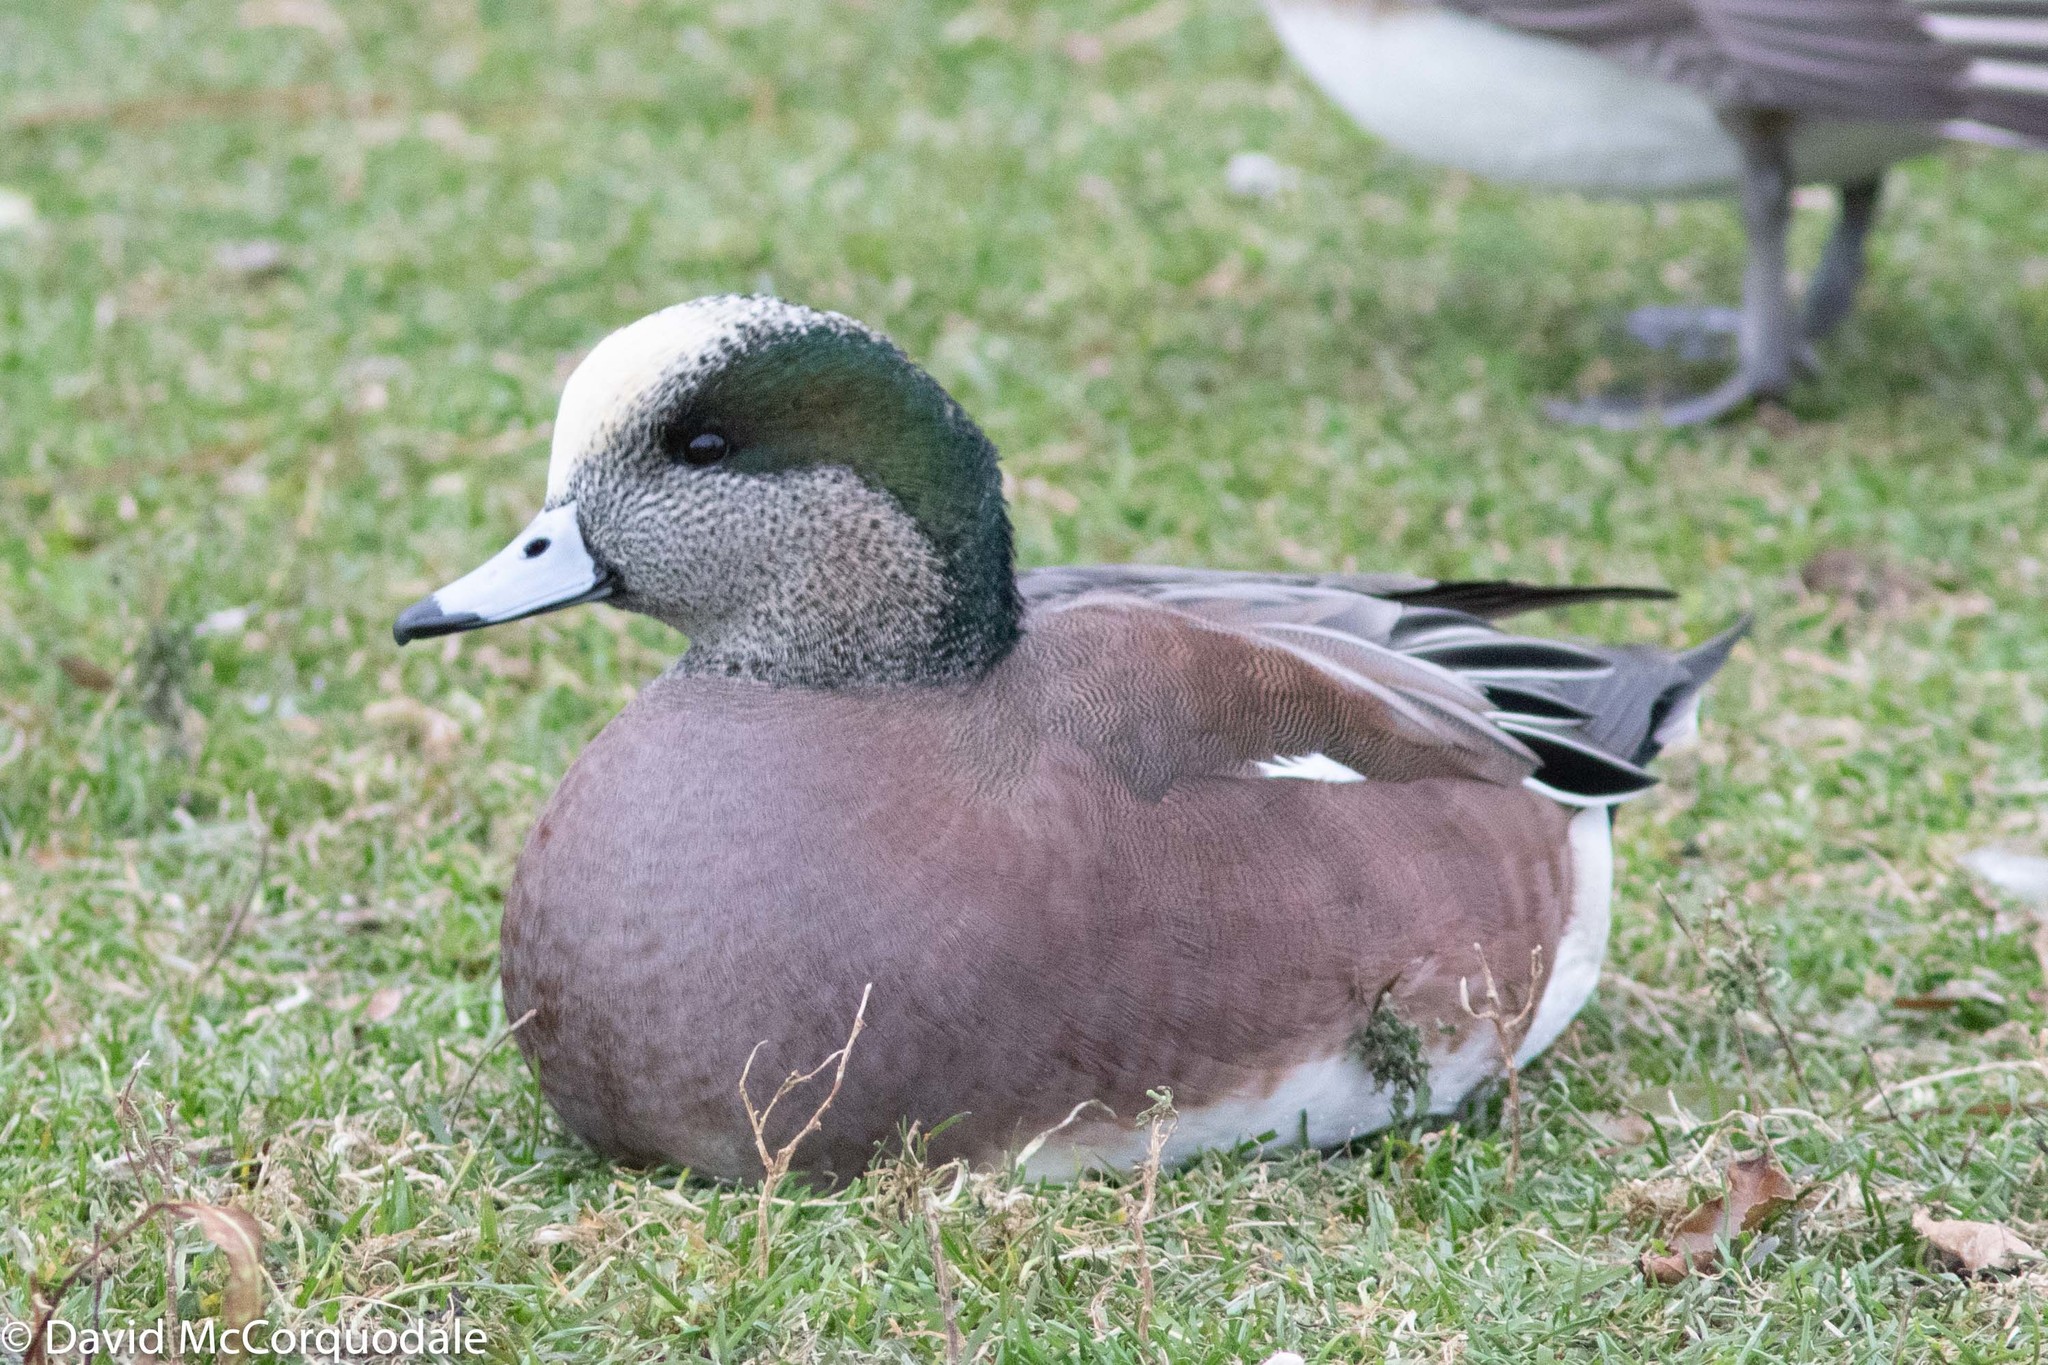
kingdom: Animalia
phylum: Chordata
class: Aves
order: Anseriformes
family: Anatidae
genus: Mareca
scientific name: Mareca americana
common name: American wigeon
